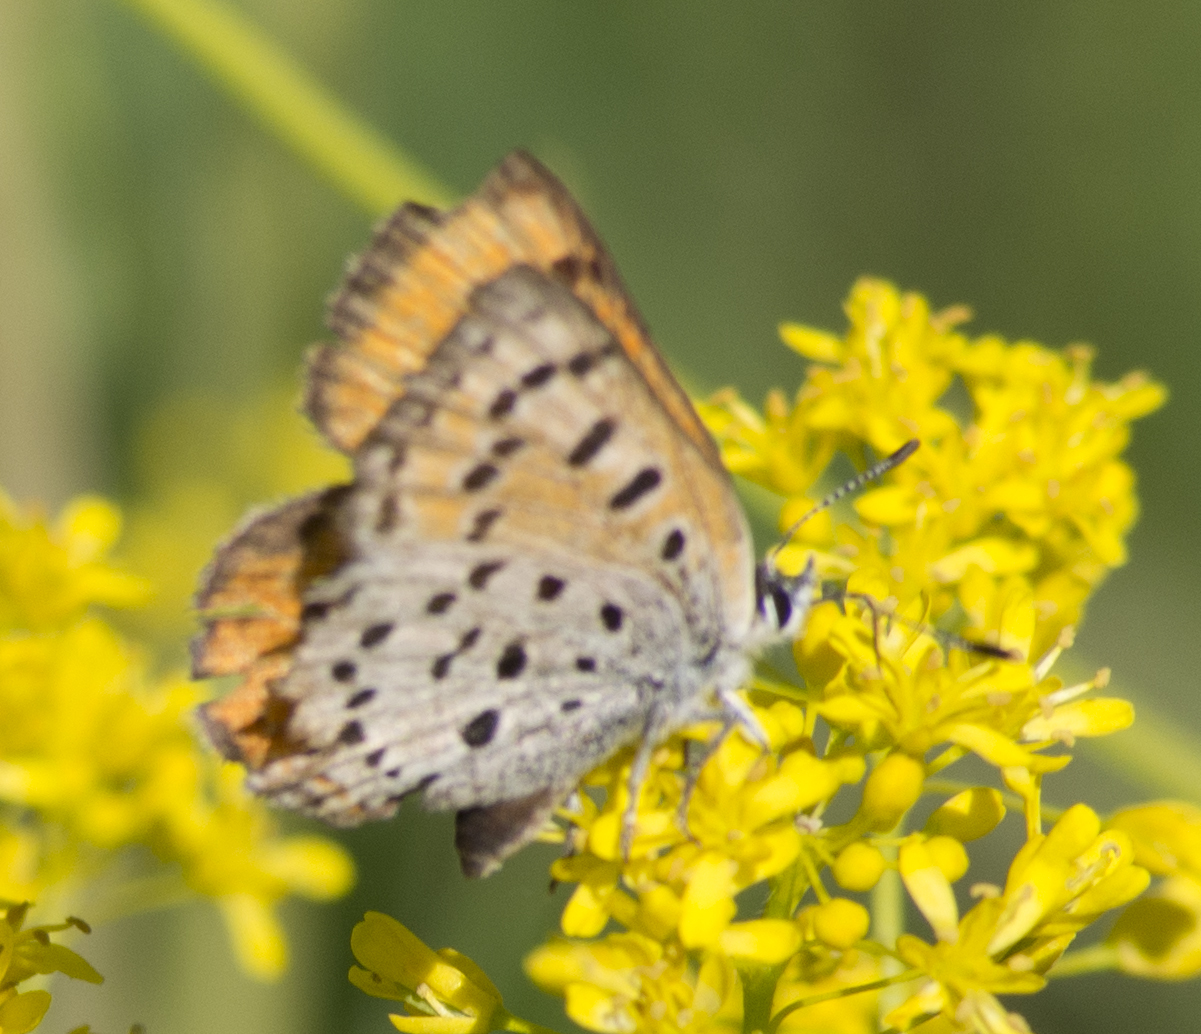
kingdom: Animalia
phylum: Arthropoda
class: Insecta
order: Lepidoptera
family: Lycaenidae
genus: Lycaena
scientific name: Lycaena cupreus
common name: Lustrous copper
